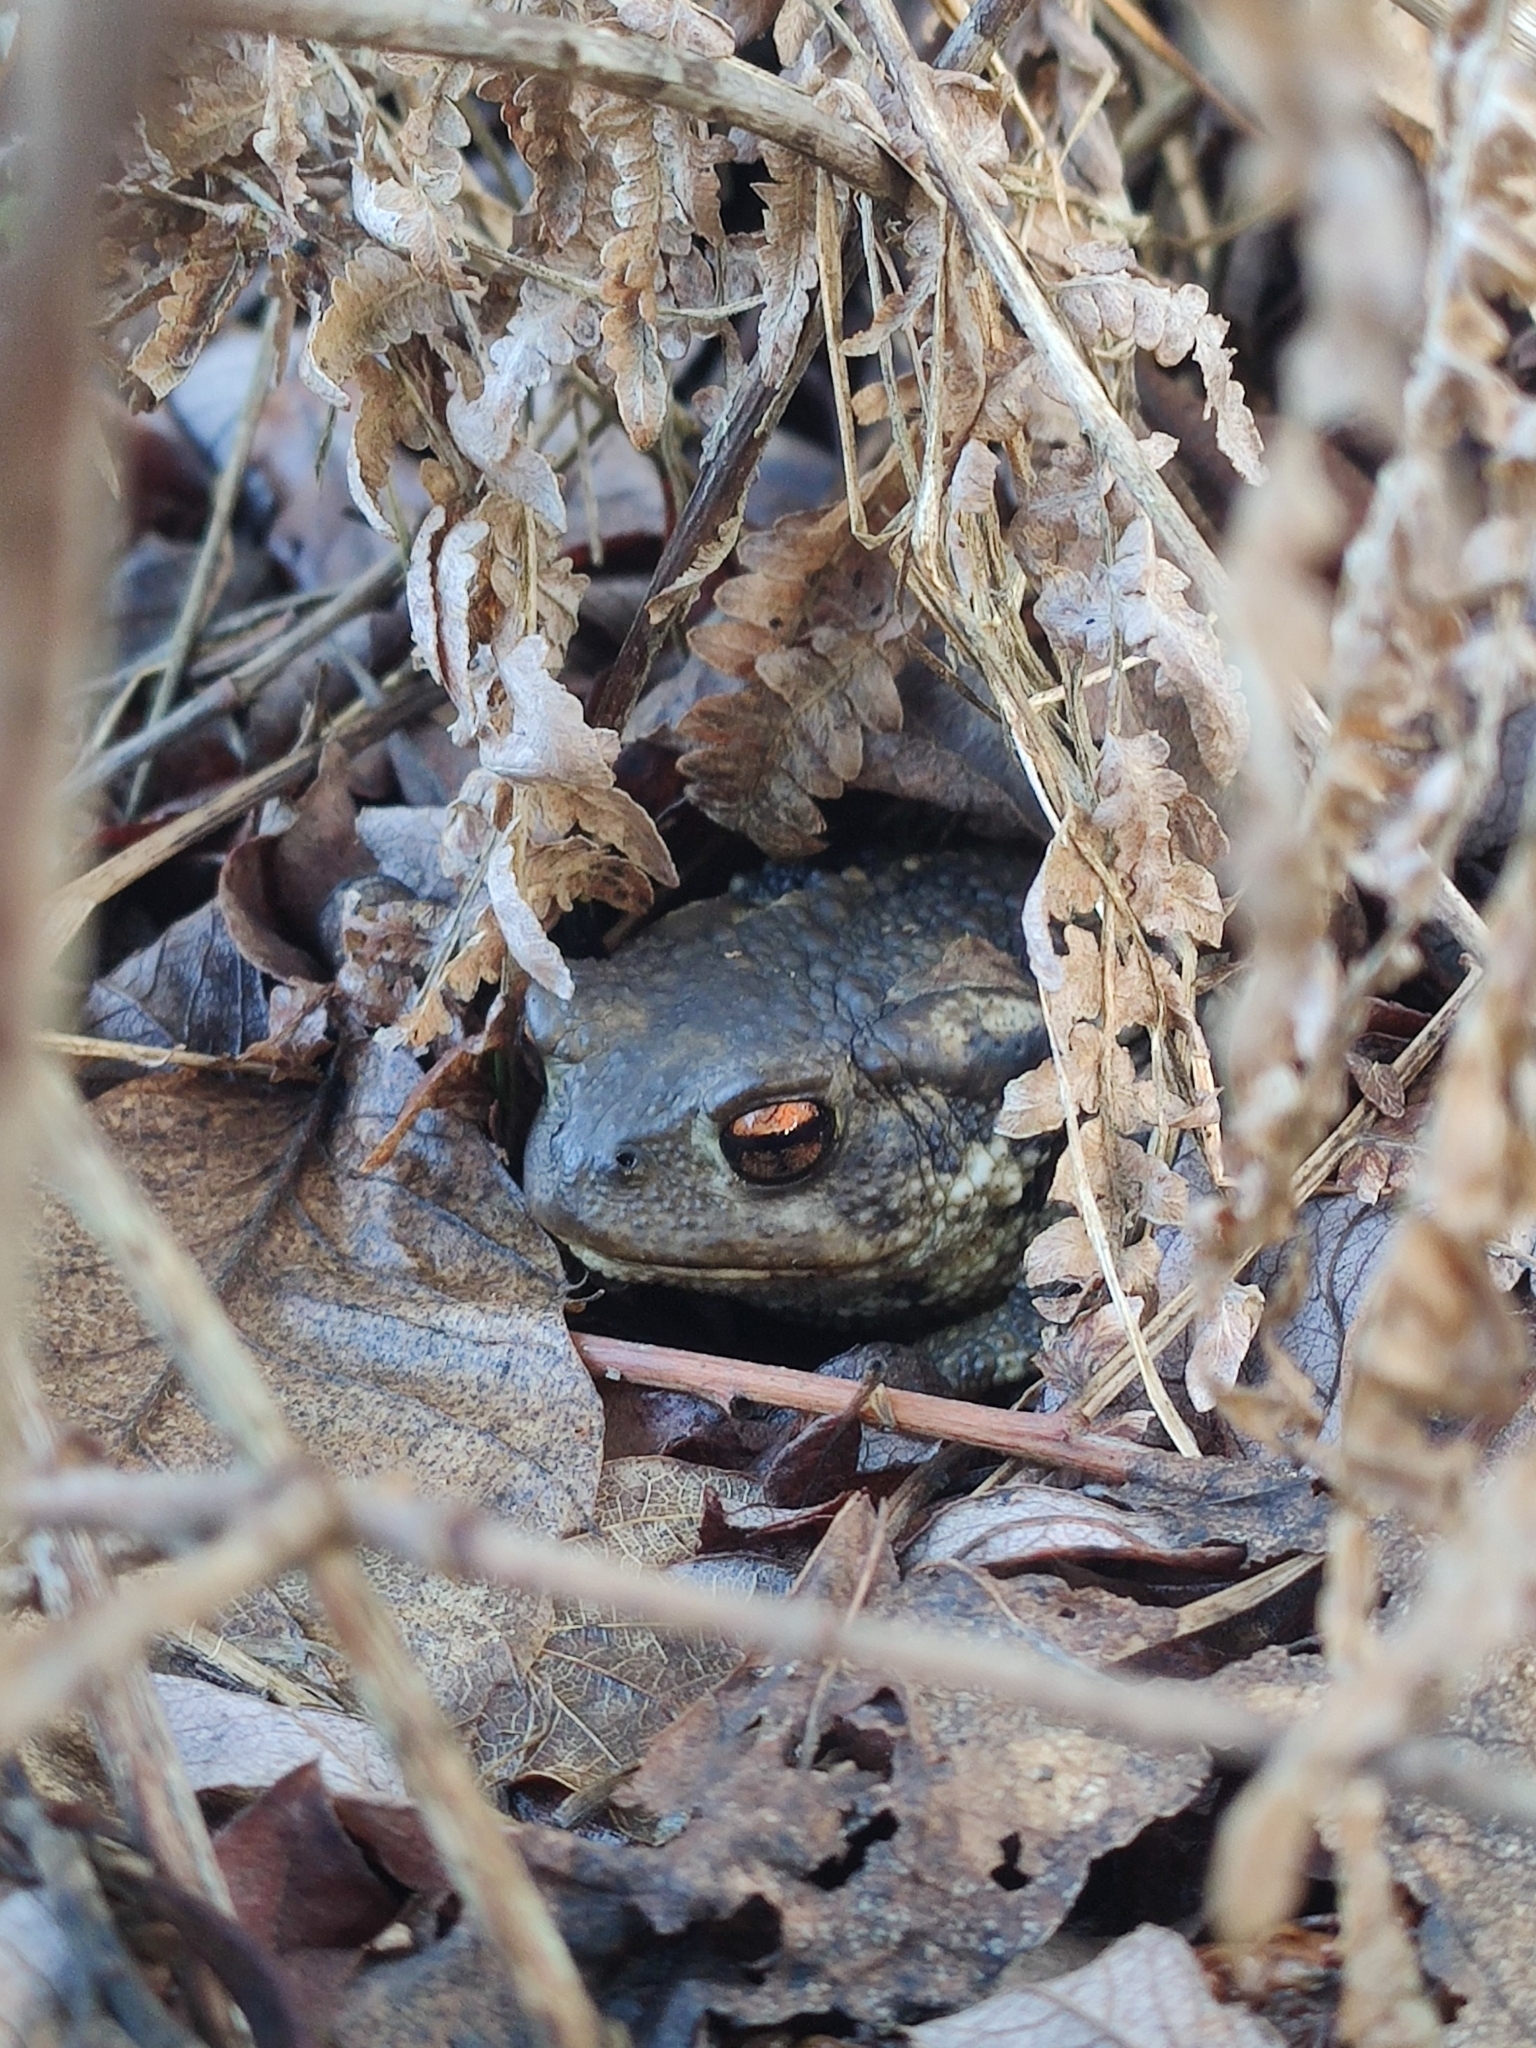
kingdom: Animalia
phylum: Chordata
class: Amphibia
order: Anura
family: Bufonidae
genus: Bufo
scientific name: Bufo spinosus
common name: Western common toad
